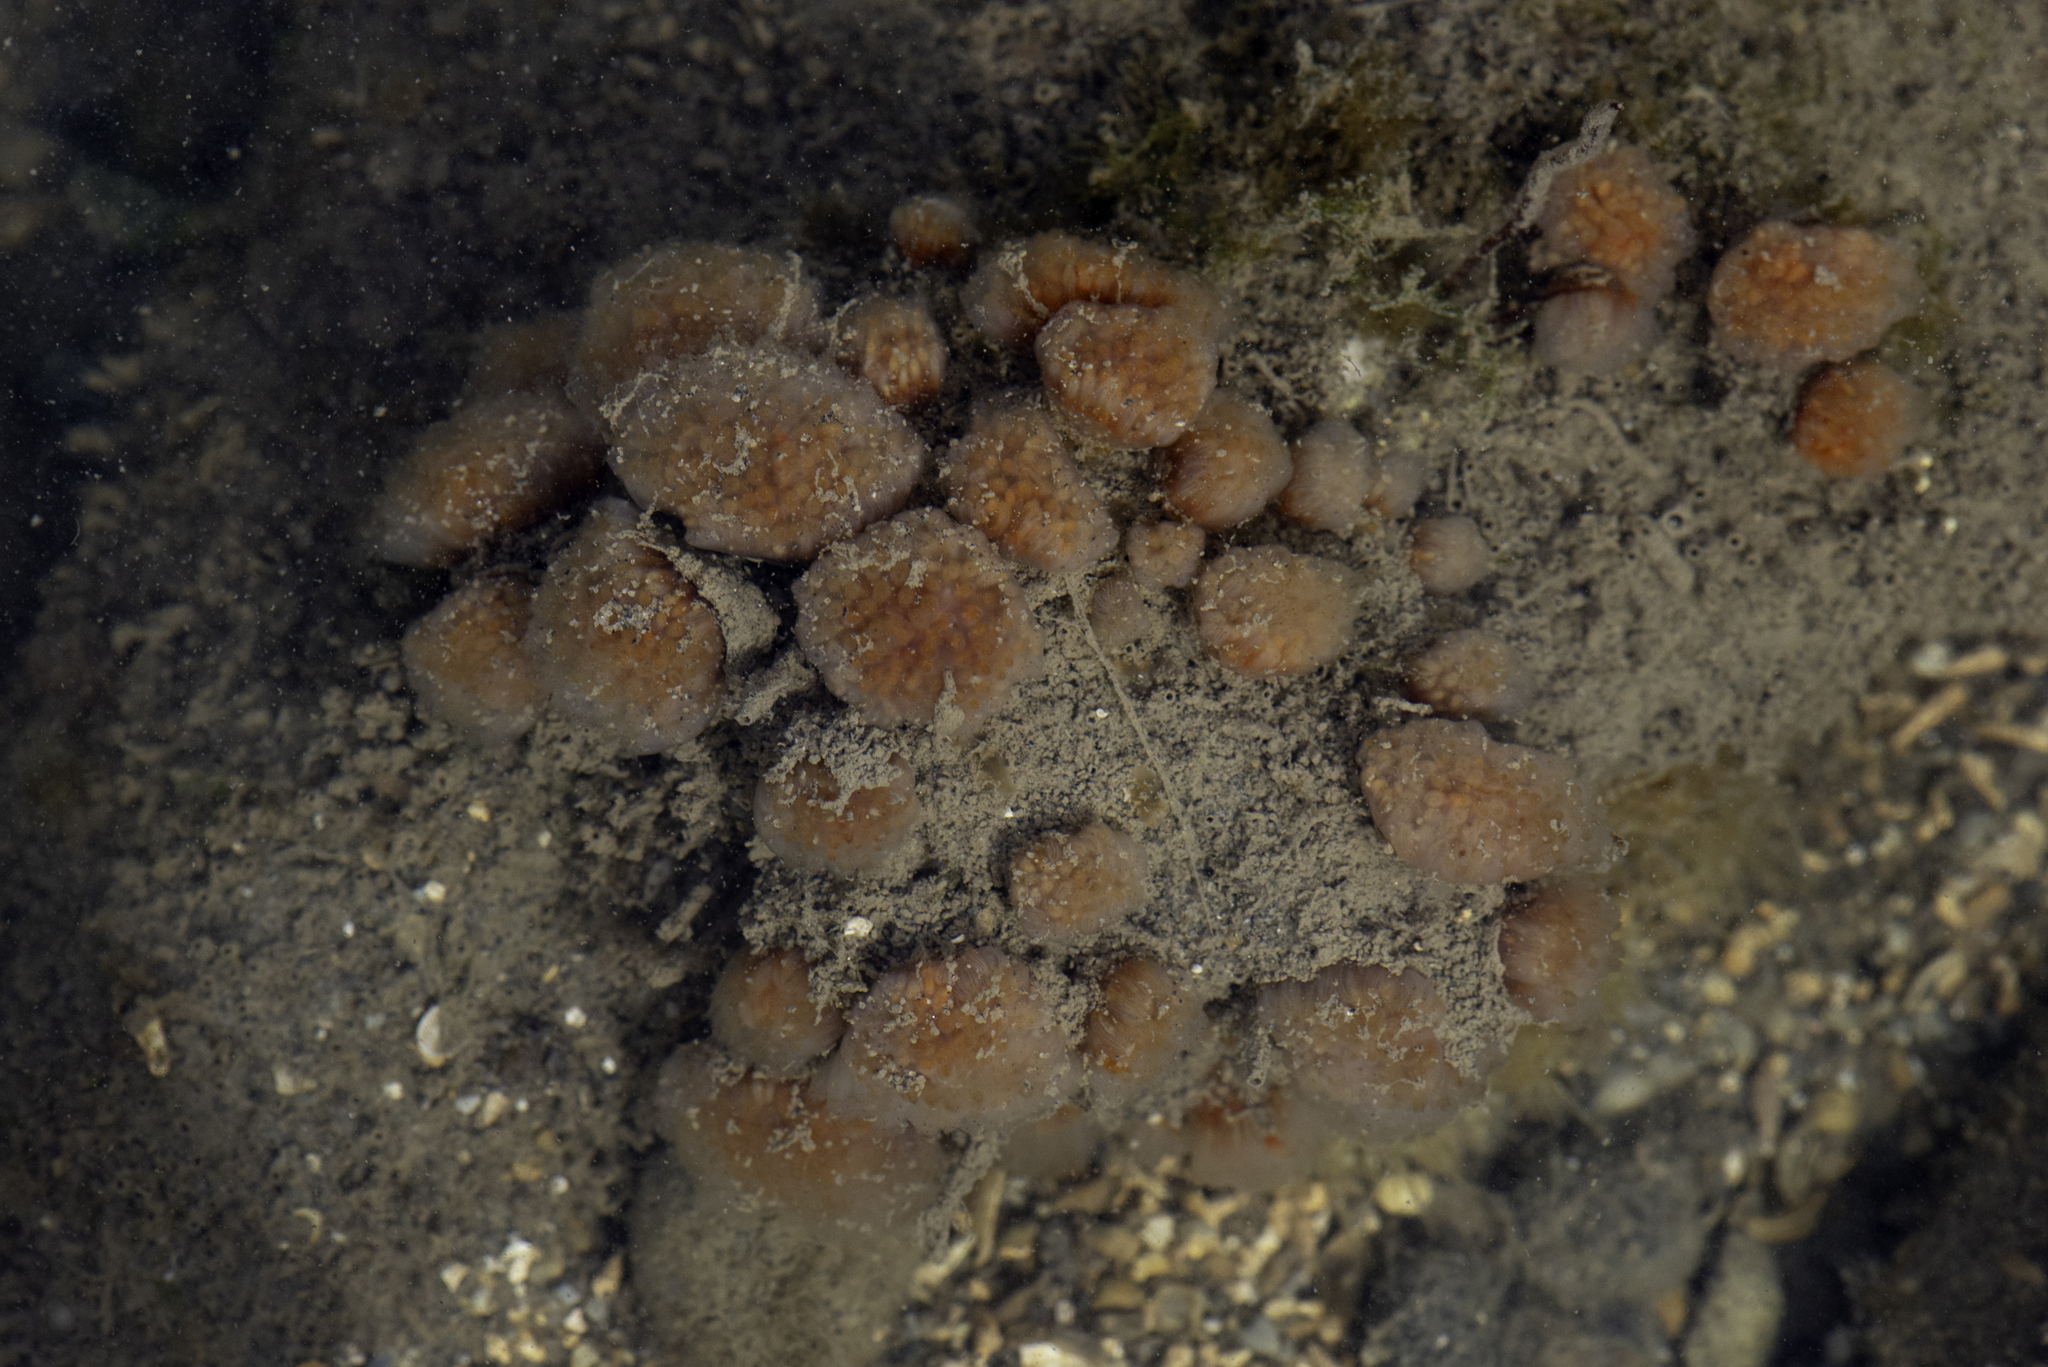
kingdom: Animalia
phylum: Chordata
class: Ascidiacea
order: Aplousobranchia
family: Polyclinidae
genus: Morchellium
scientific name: Morchellium argus
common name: Colonial sesquirt
